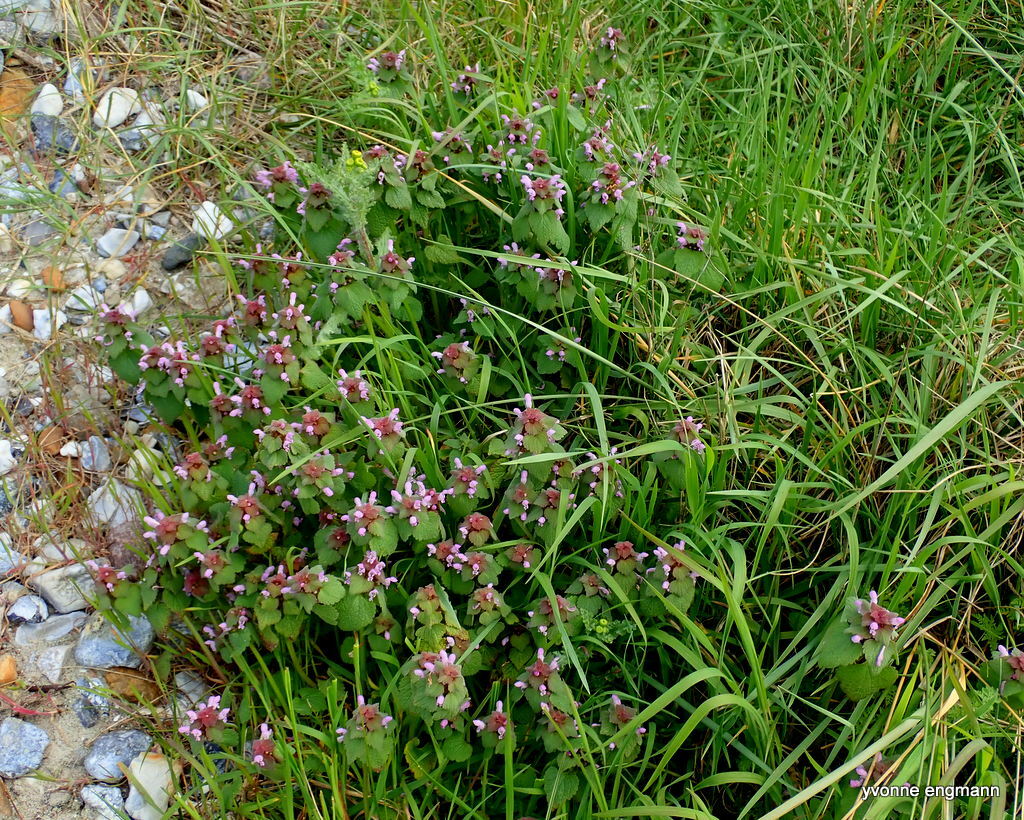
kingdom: Plantae
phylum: Tracheophyta
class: Magnoliopsida
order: Lamiales
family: Lamiaceae
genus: Lamium
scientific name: Lamium purpureum
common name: Red dead-nettle
